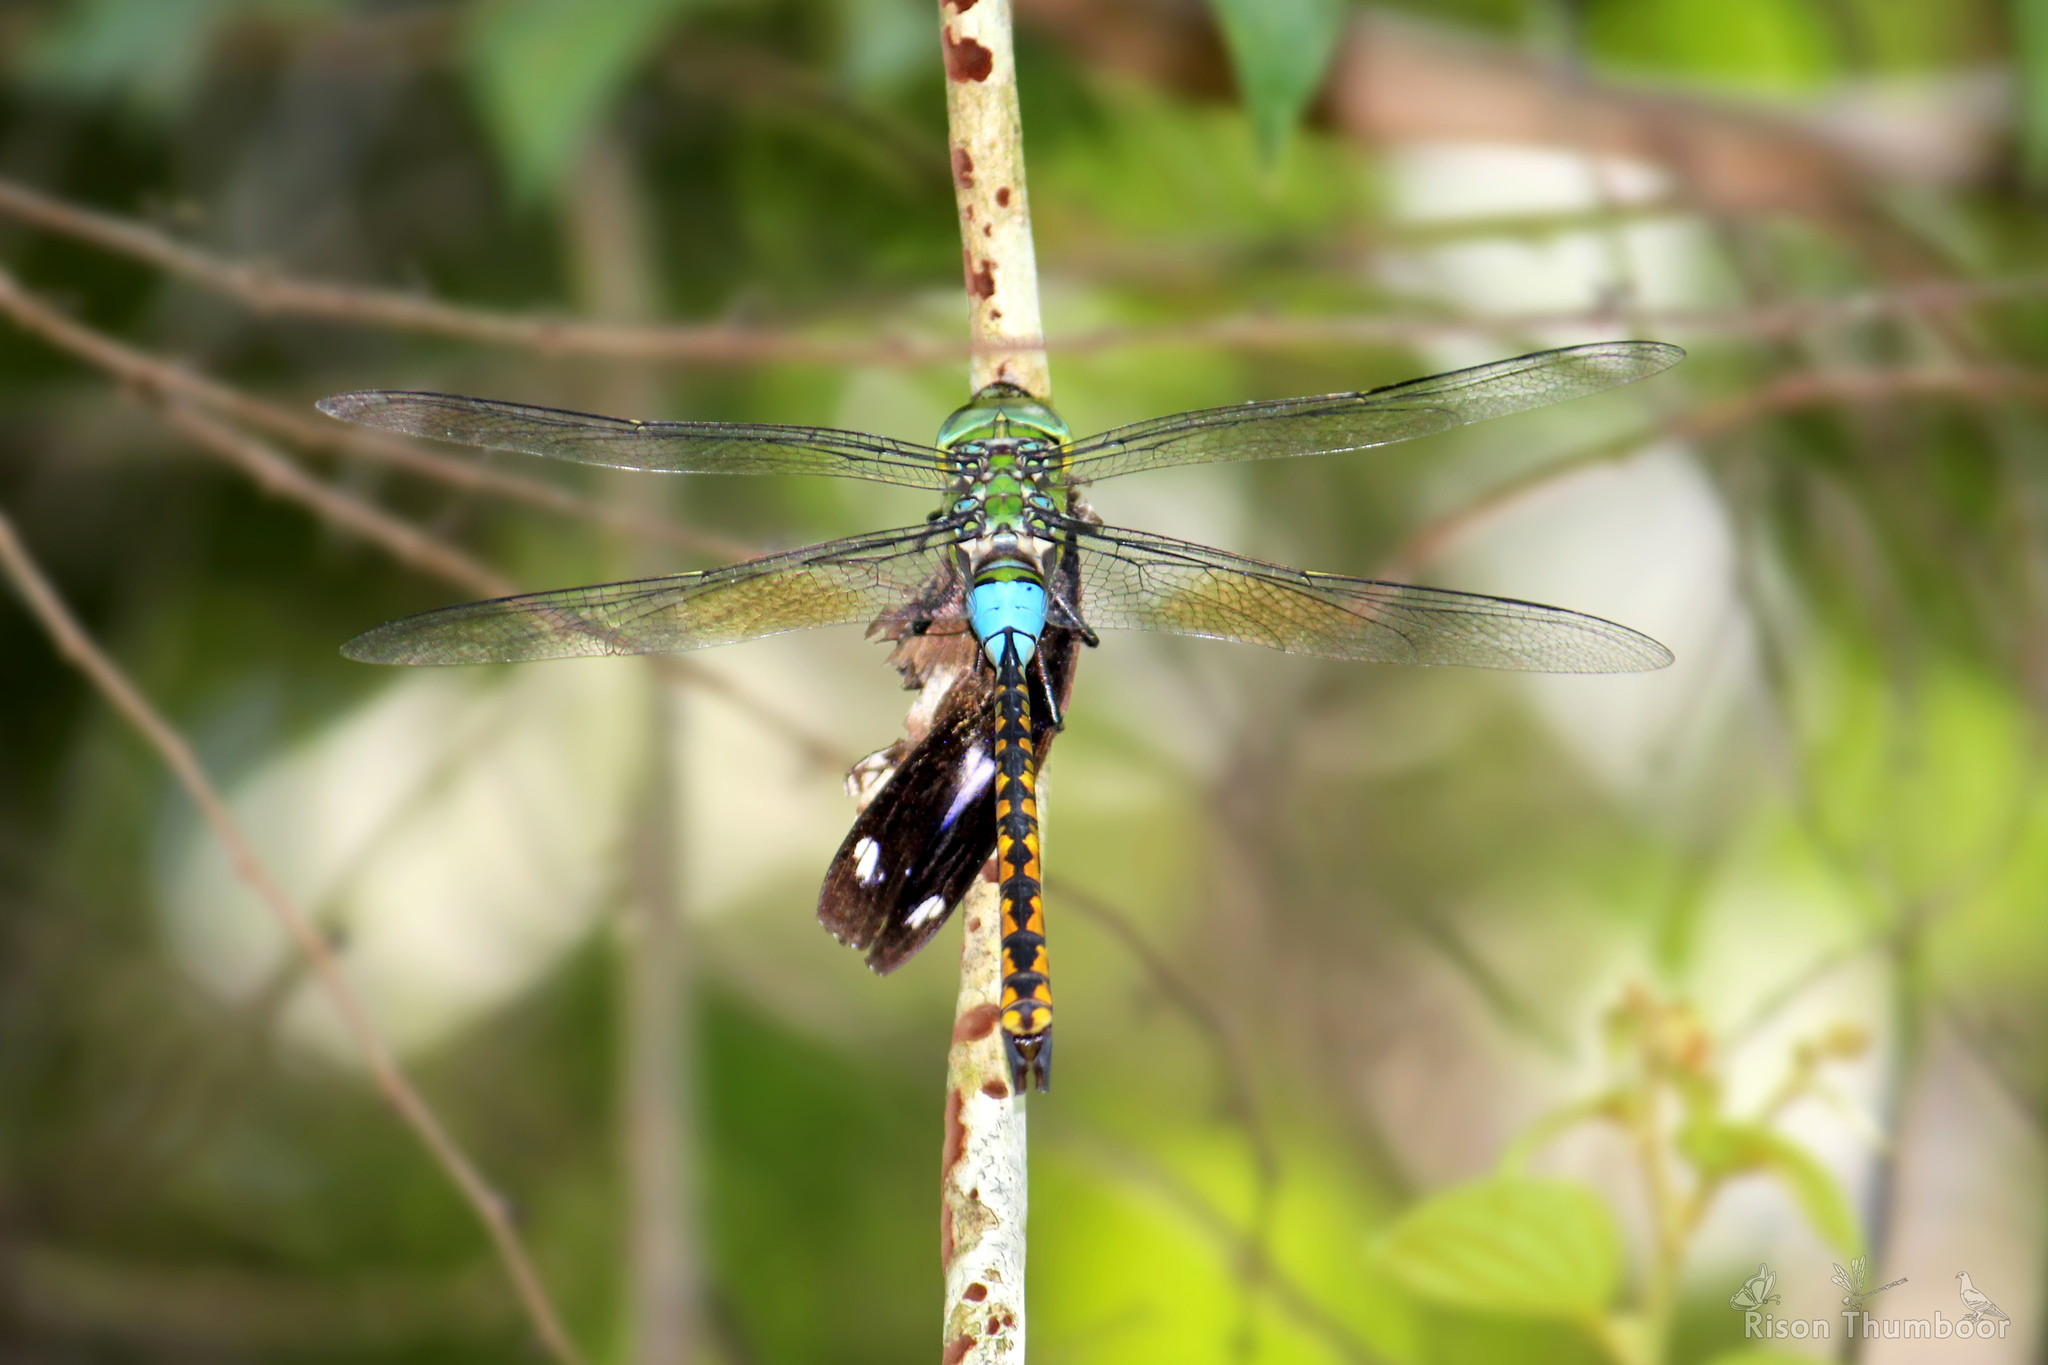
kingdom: Animalia
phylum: Arthropoda
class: Insecta
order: Odonata
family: Aeshnidae
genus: Anax
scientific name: Anax indicus
